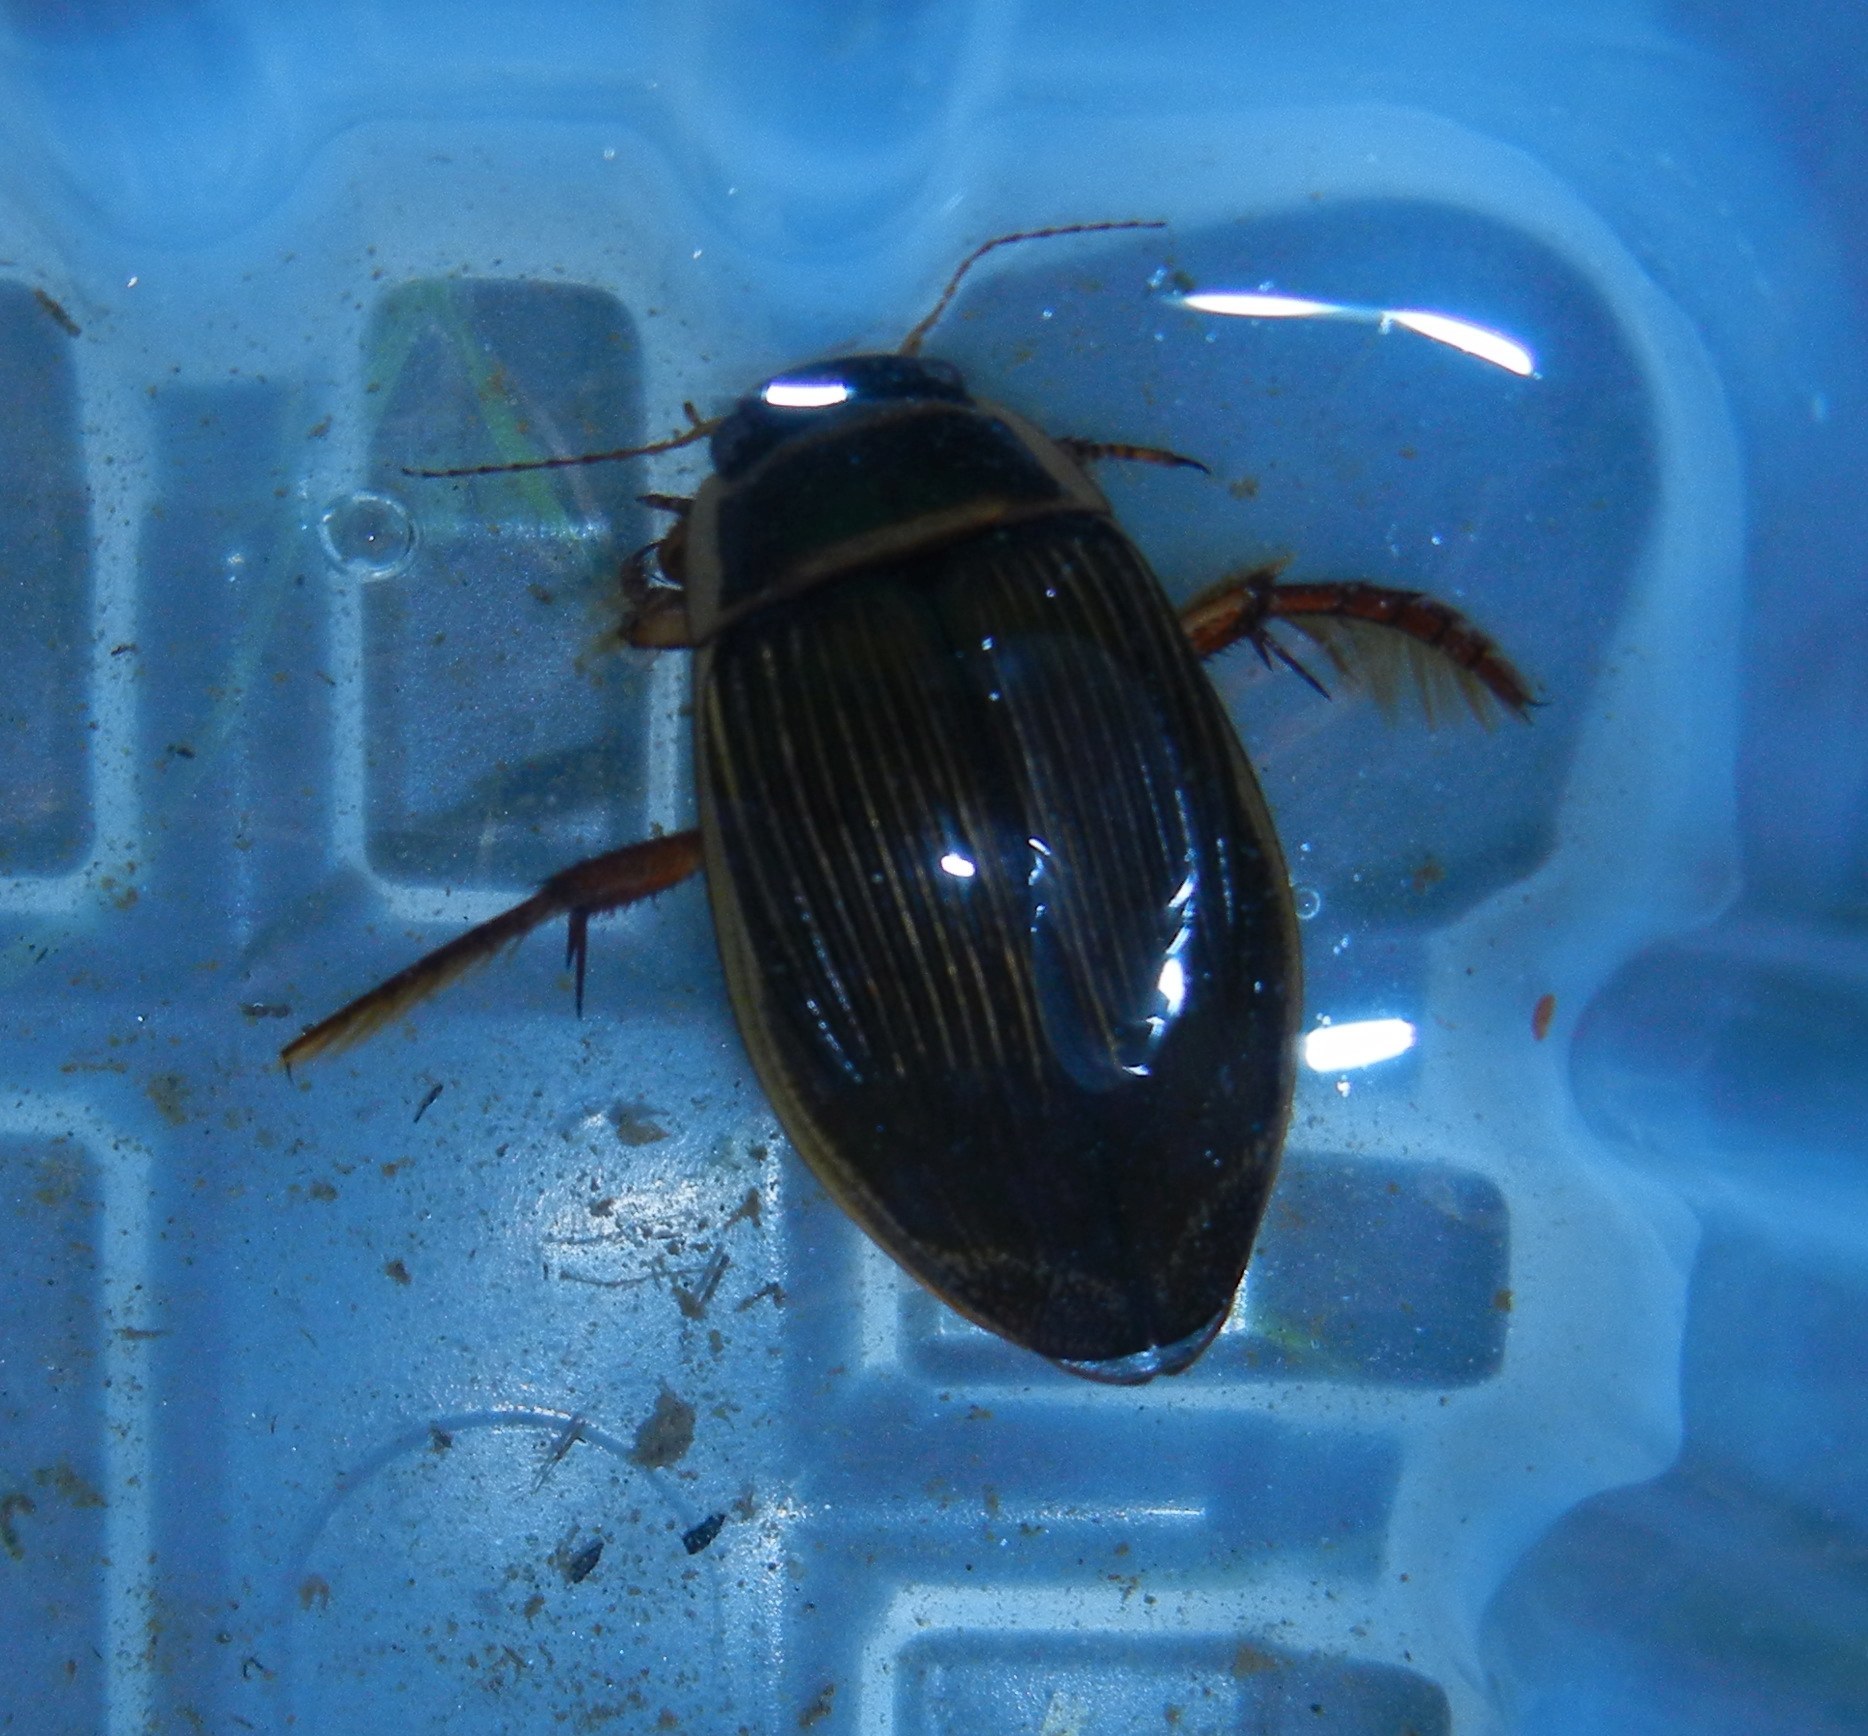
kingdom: Animalia
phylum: Arthropoda
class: Insecta
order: Coleoptera
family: Dytiscidae
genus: Dytiscus
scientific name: Dytiscus marginalis
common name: Great water beetle
